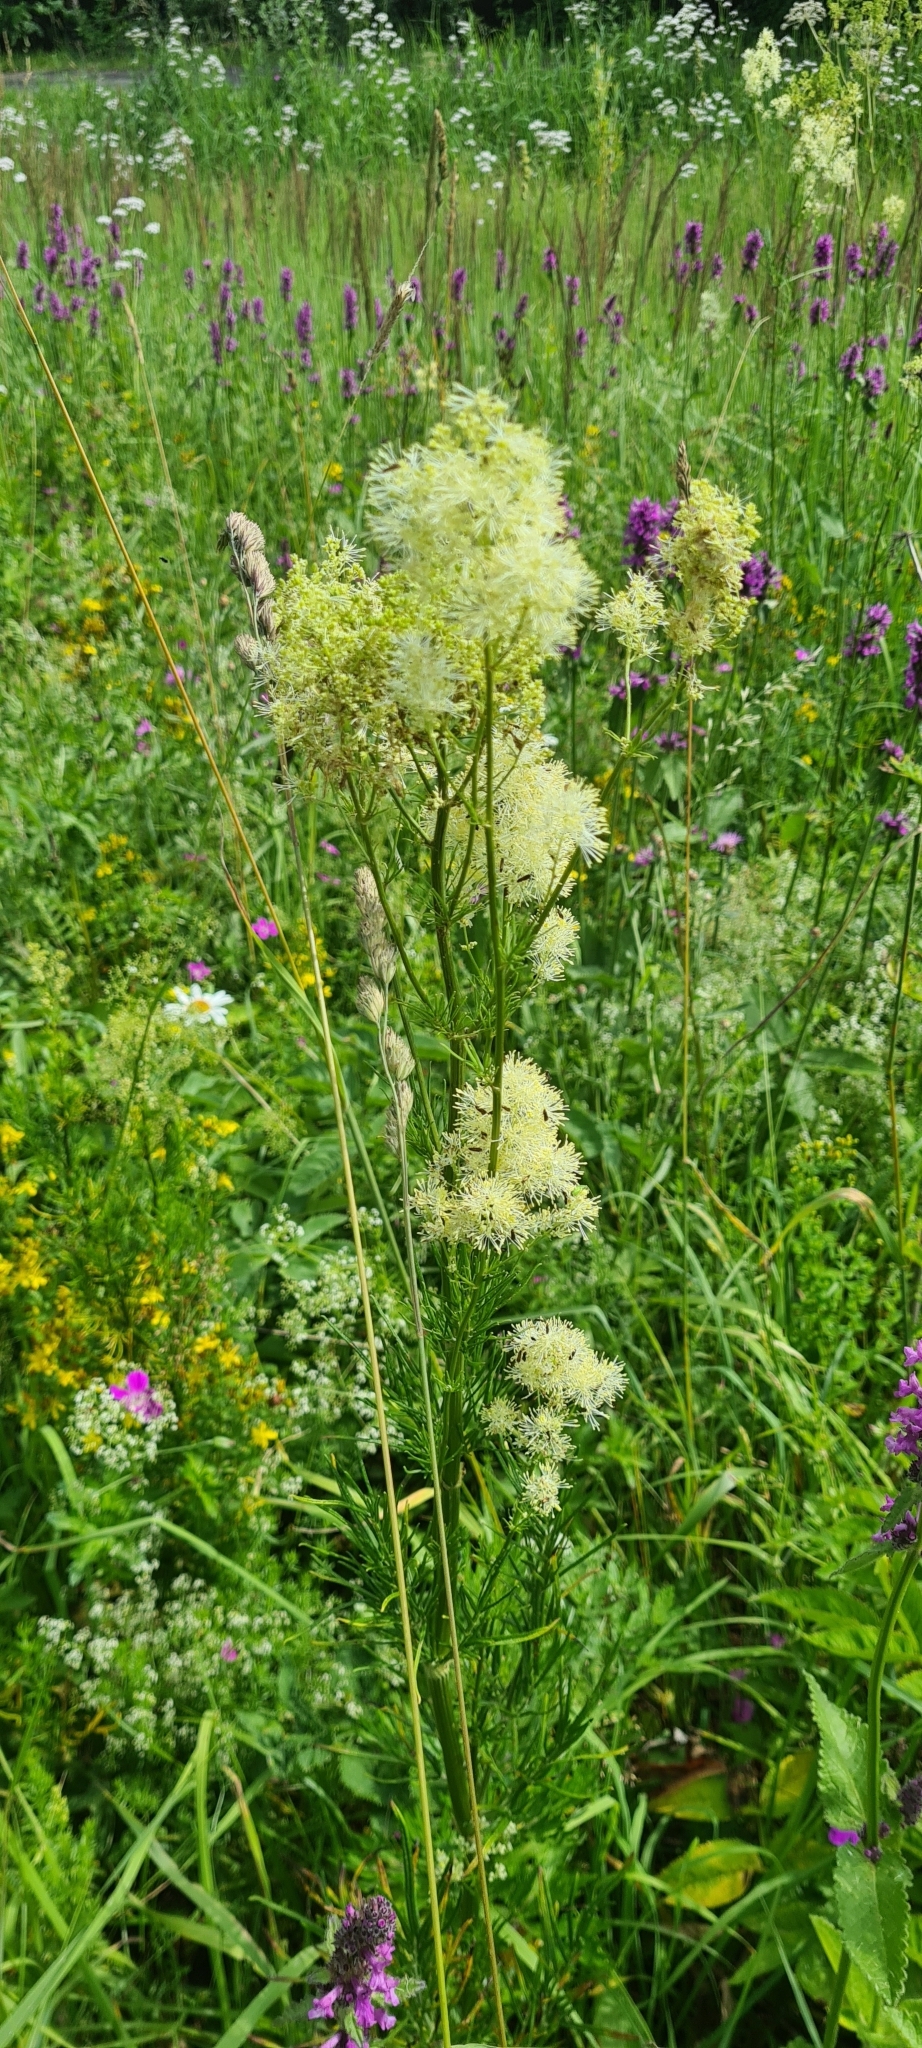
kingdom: Plantae
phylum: Tracheophyta
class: Magnoliopsida
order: Ranunculales
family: Ranunculaceae
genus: Thalictrum
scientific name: Thalictrum lucidum
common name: Shining meadow-rue
